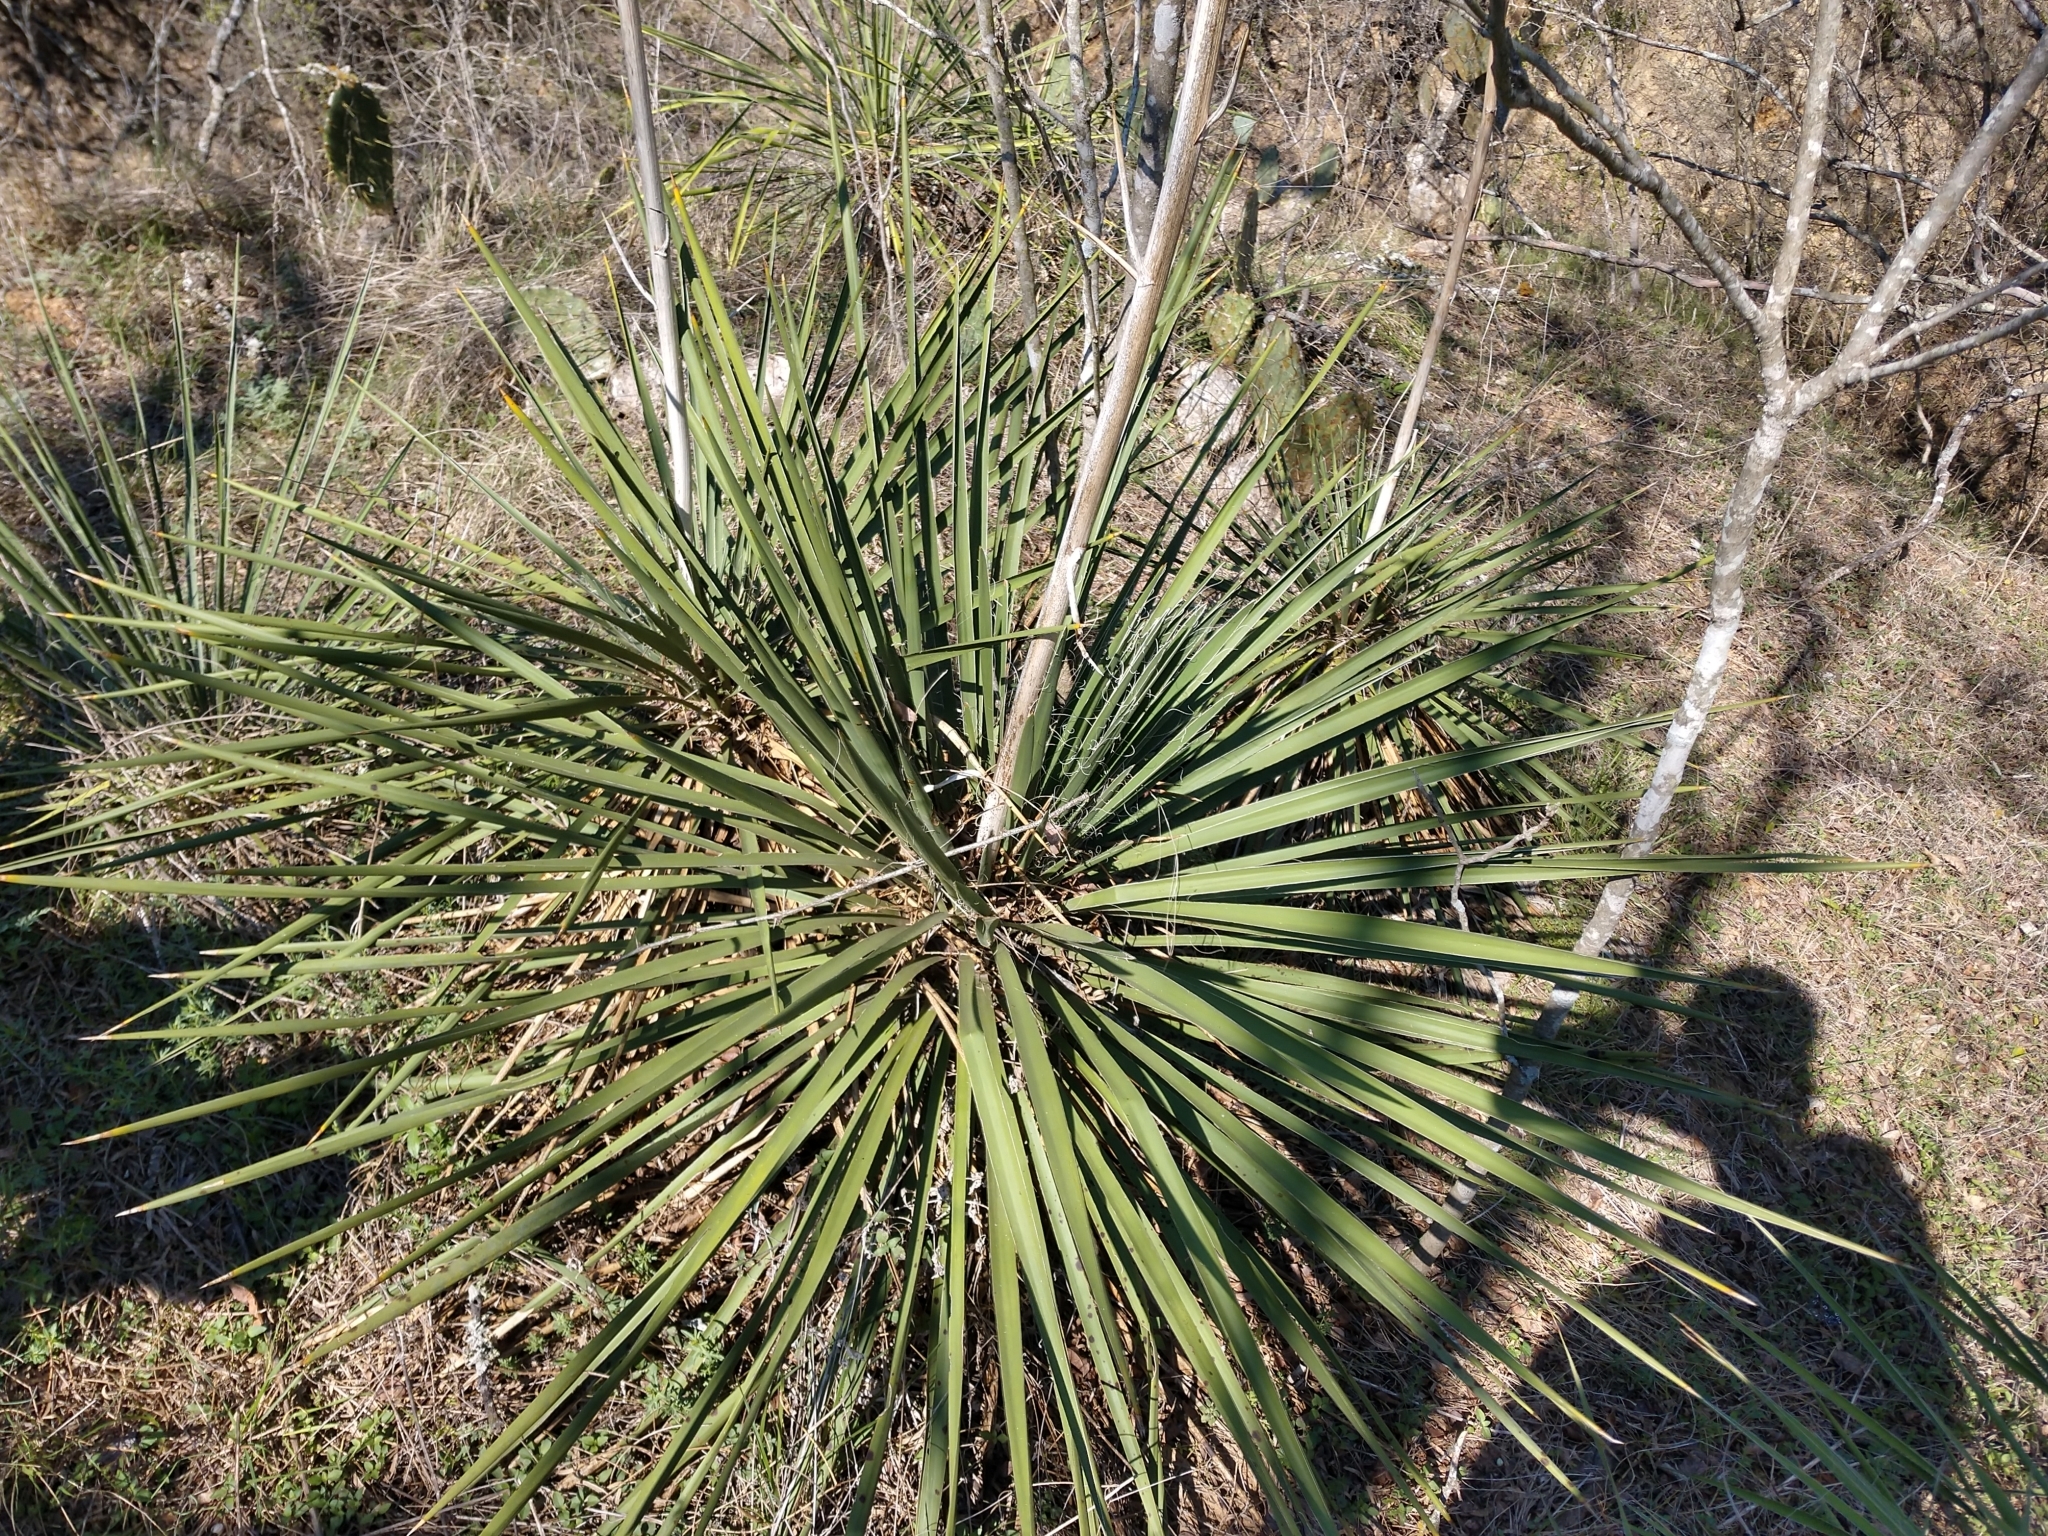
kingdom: Plantae
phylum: Tracheophyta
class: Liliopsida
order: Asparagales
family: Asparagaceae
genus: Yucca
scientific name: Yucca constricta
